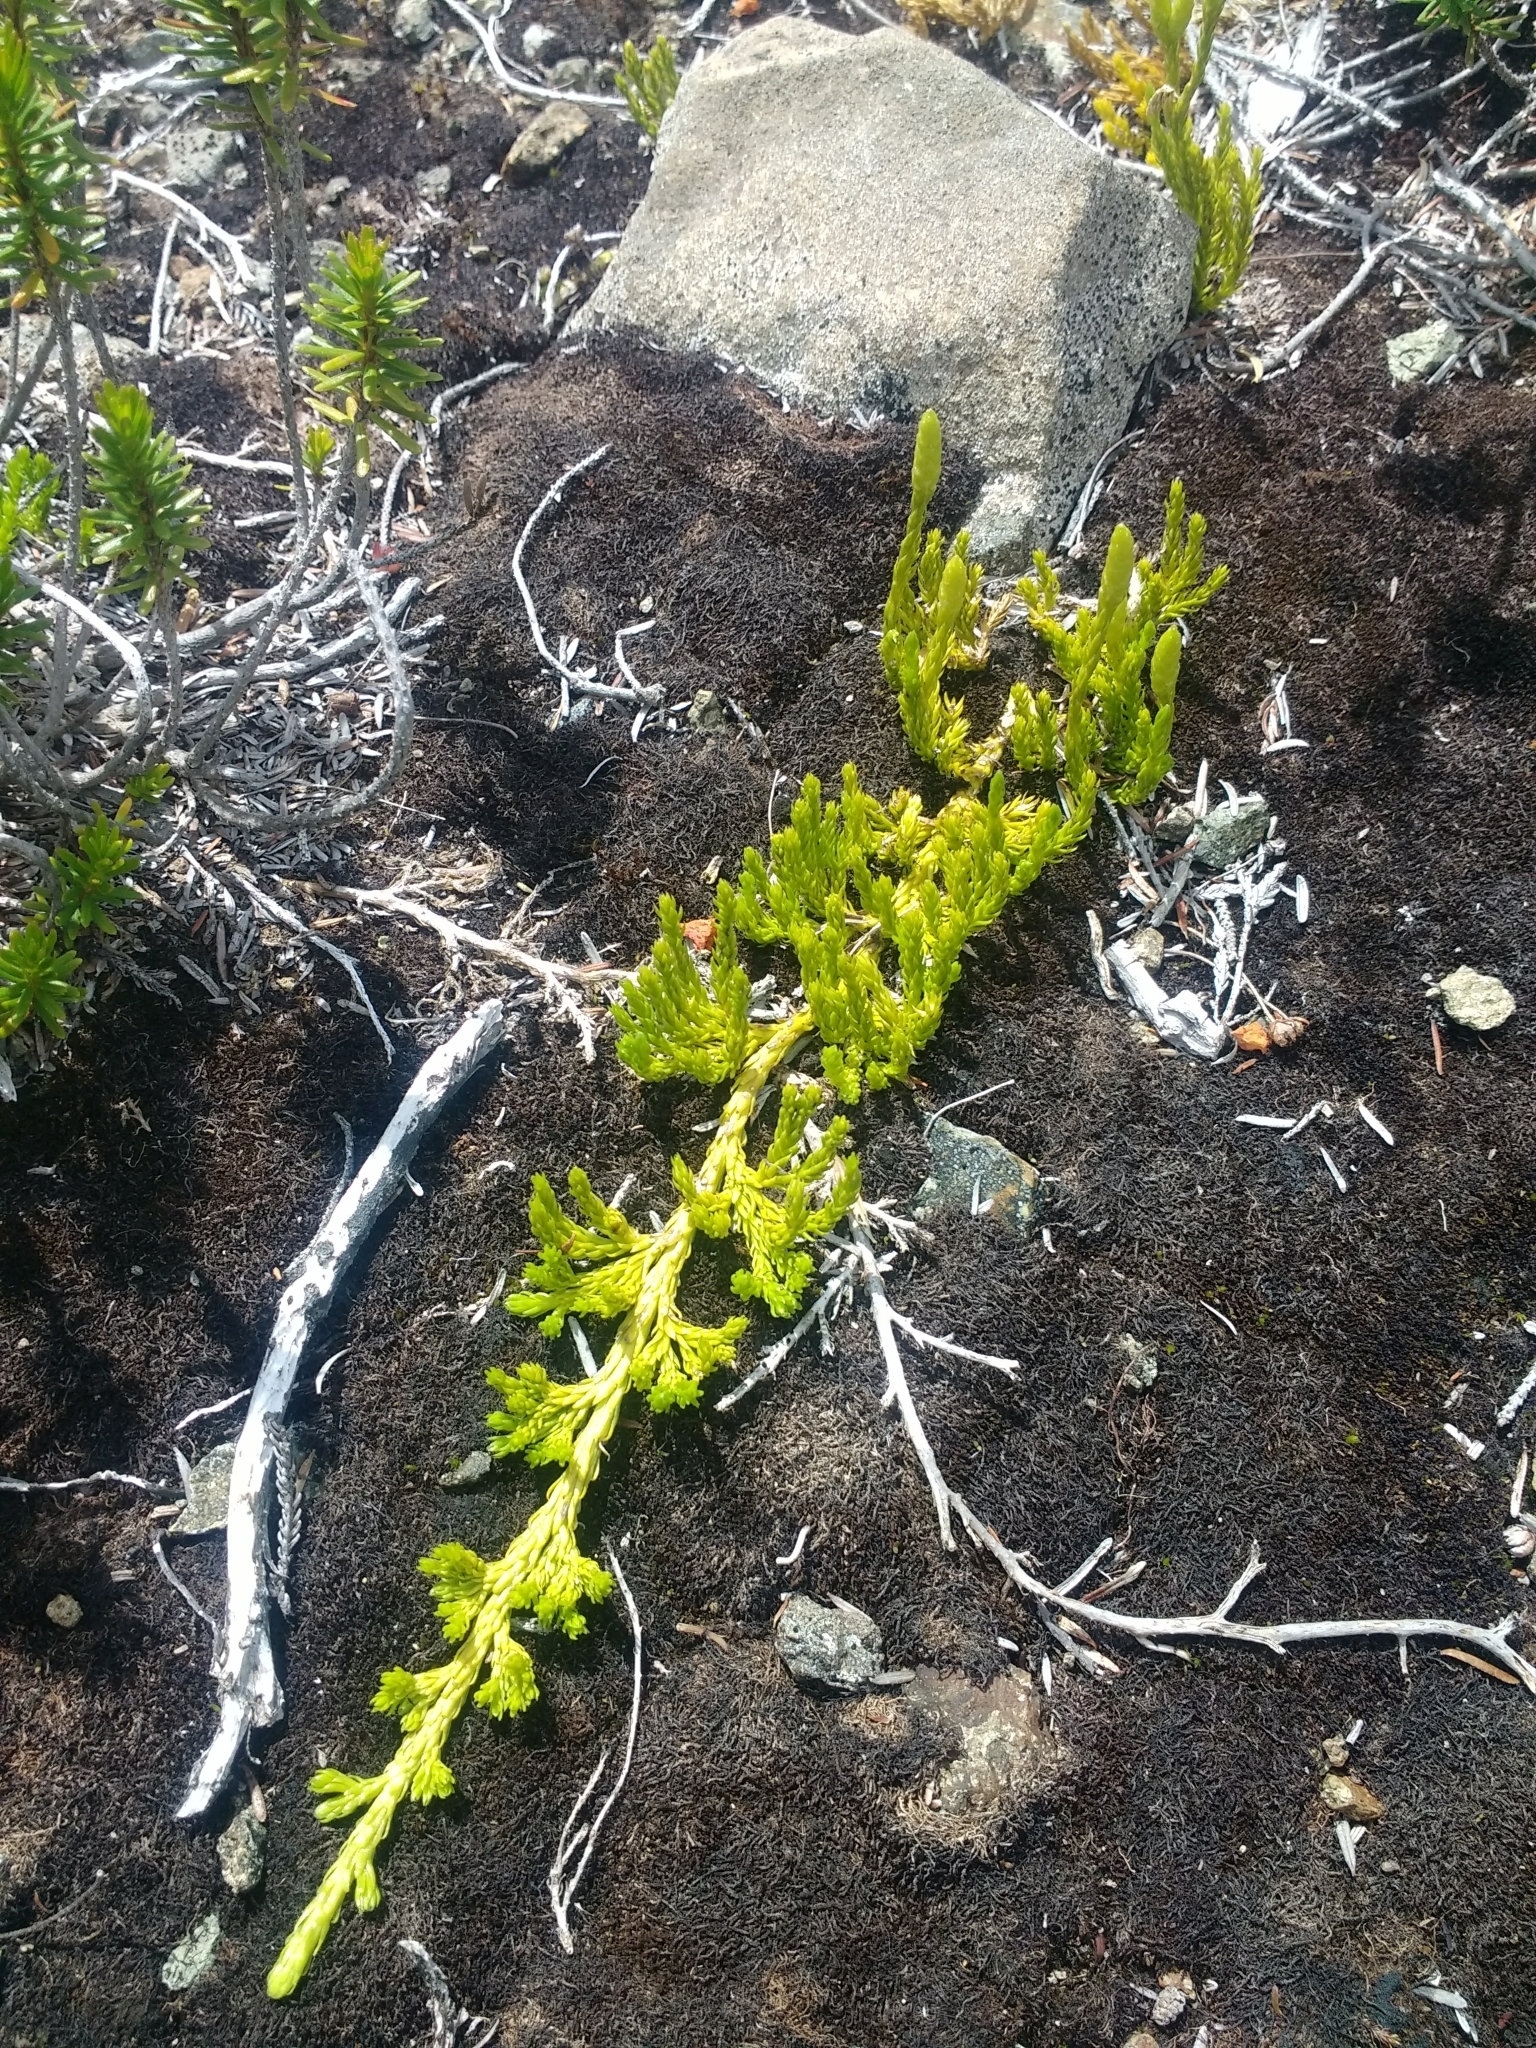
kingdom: Plantae
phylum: Tracheophyta
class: Lycopodiopsida
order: Lycopodiales
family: Lycopodiaceae
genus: Diphasiastrum
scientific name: Diphasiastrum sitchense
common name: Alaska clubmoss
